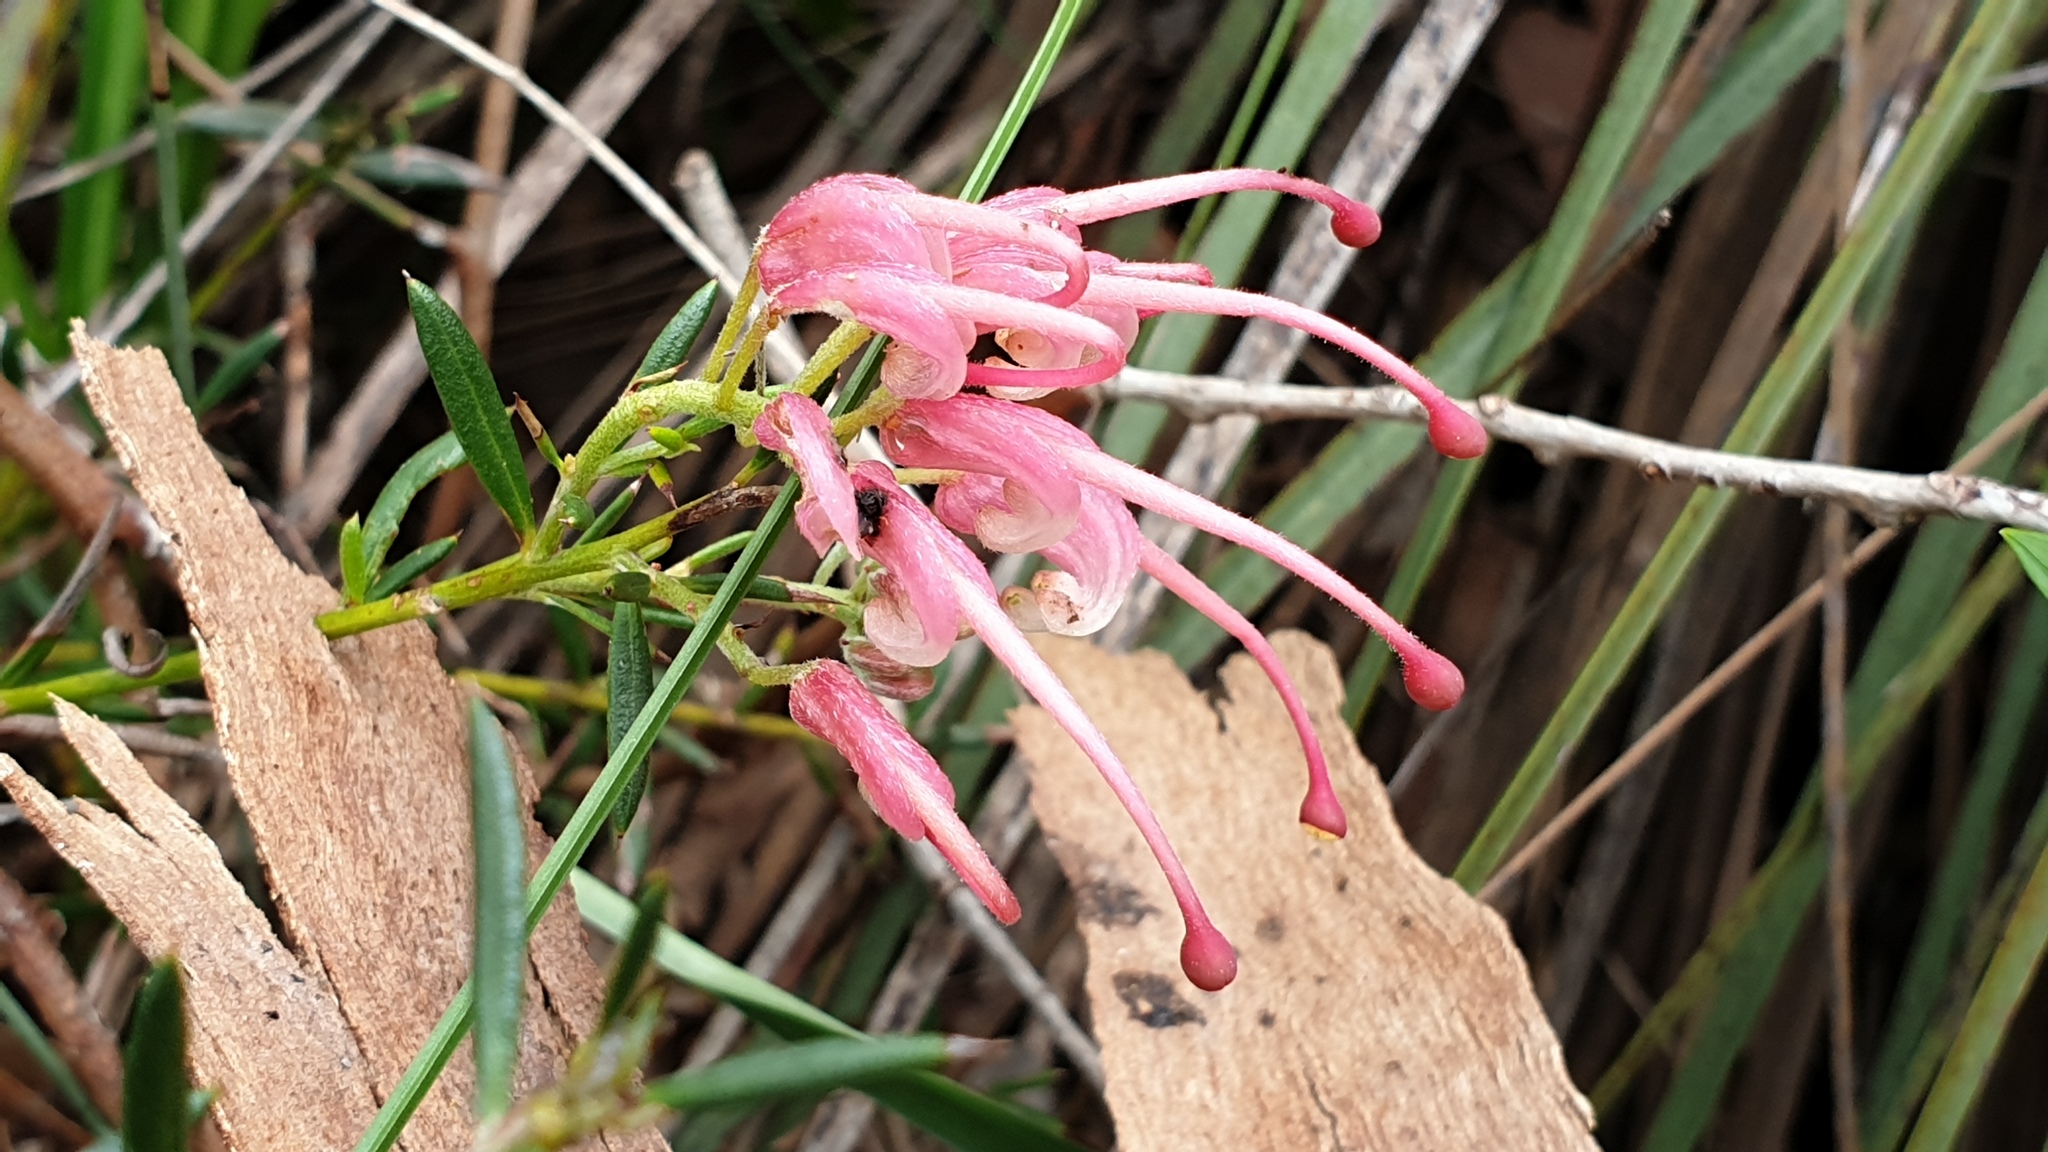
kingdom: Plantae
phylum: Tracheophyta
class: Magnoliopsida
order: Proteales
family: Proteaceae
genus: Grevillea
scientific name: Grevillea lavandulacea
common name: Lavender grevillea
